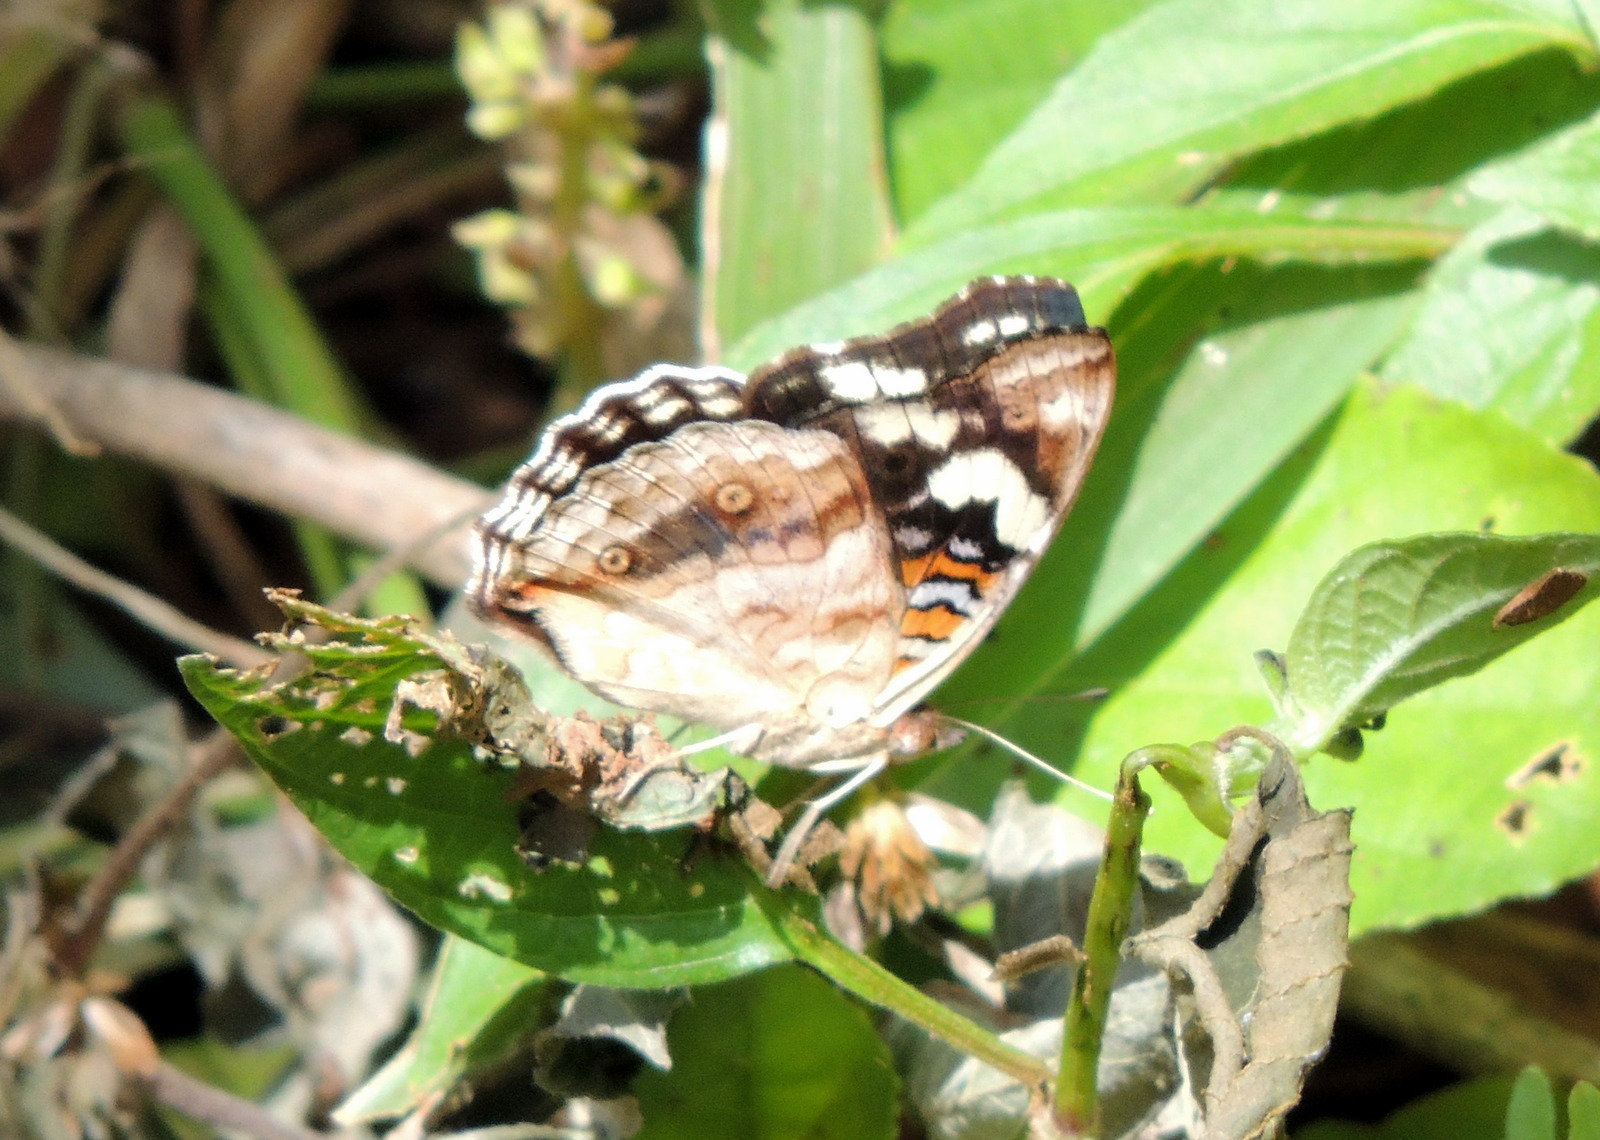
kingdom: Animalia
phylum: Arthropoda
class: Insecta
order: Lepidoptera
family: Nymphalidae
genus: Junonia
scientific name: Junonia oenone
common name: Dark blue pansy
